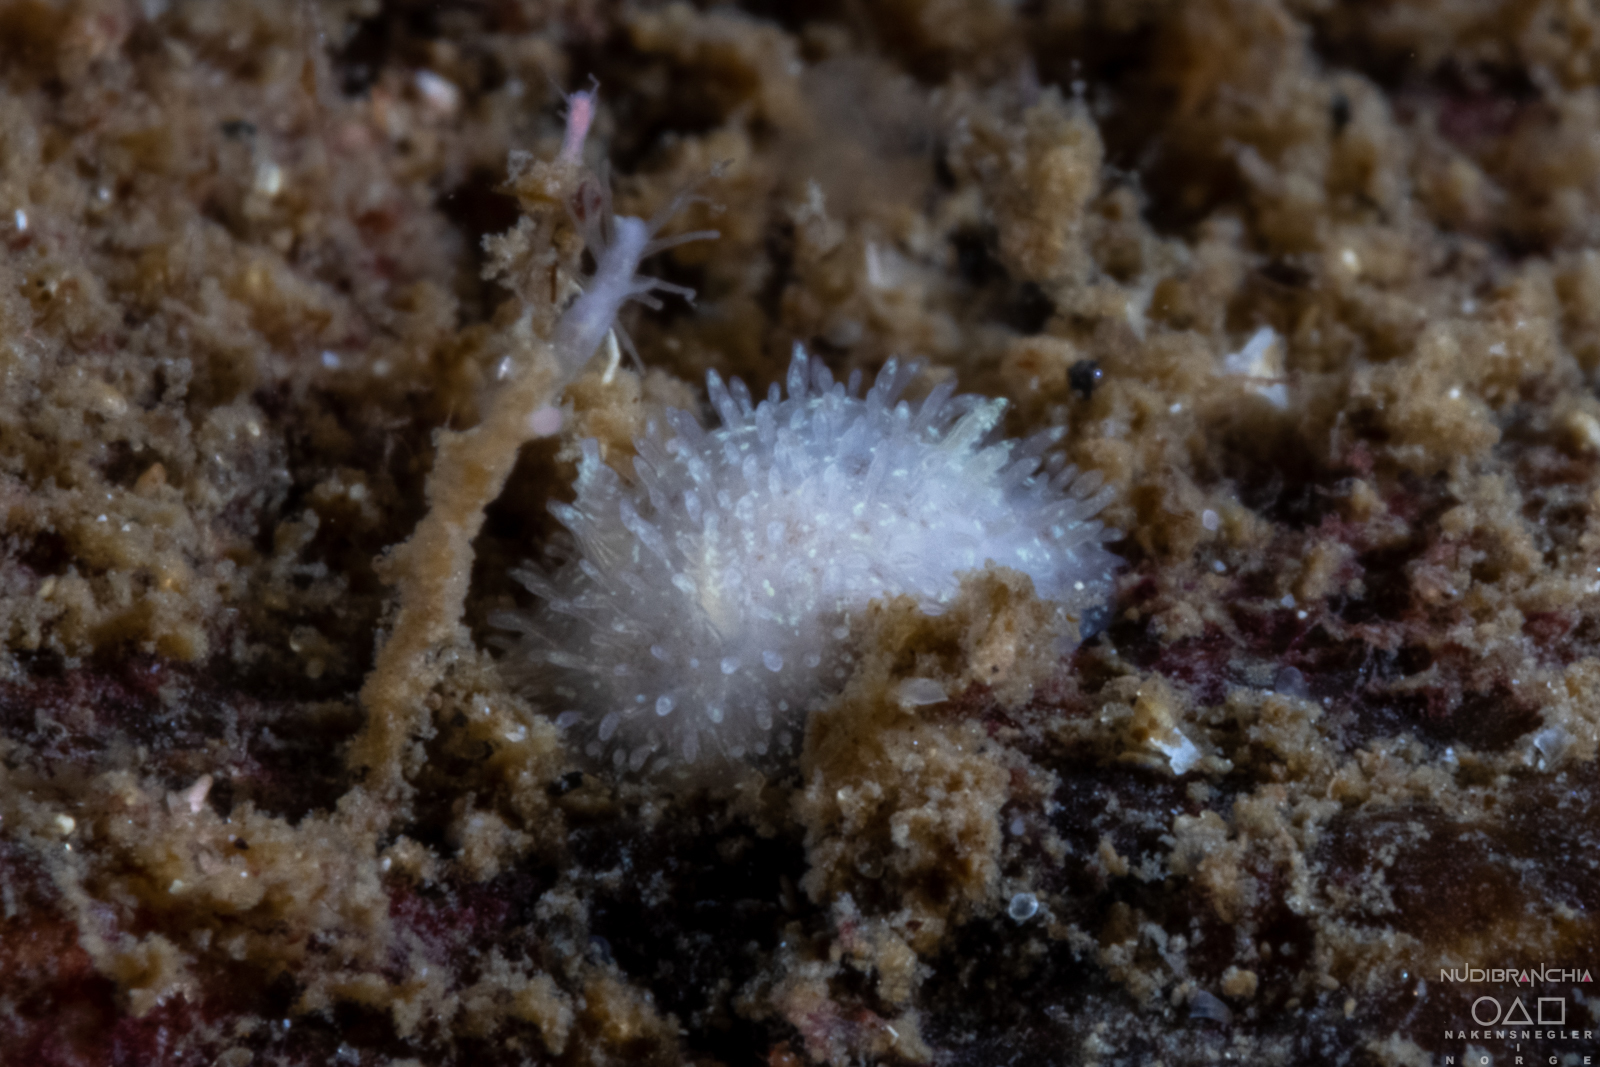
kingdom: Animalia
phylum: Mollusca
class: Gastropoda
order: Nudibranchia
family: Onchidorididae
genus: Acanthodoris
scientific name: Acanthodoris pilosa
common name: Hairy spiny doris
